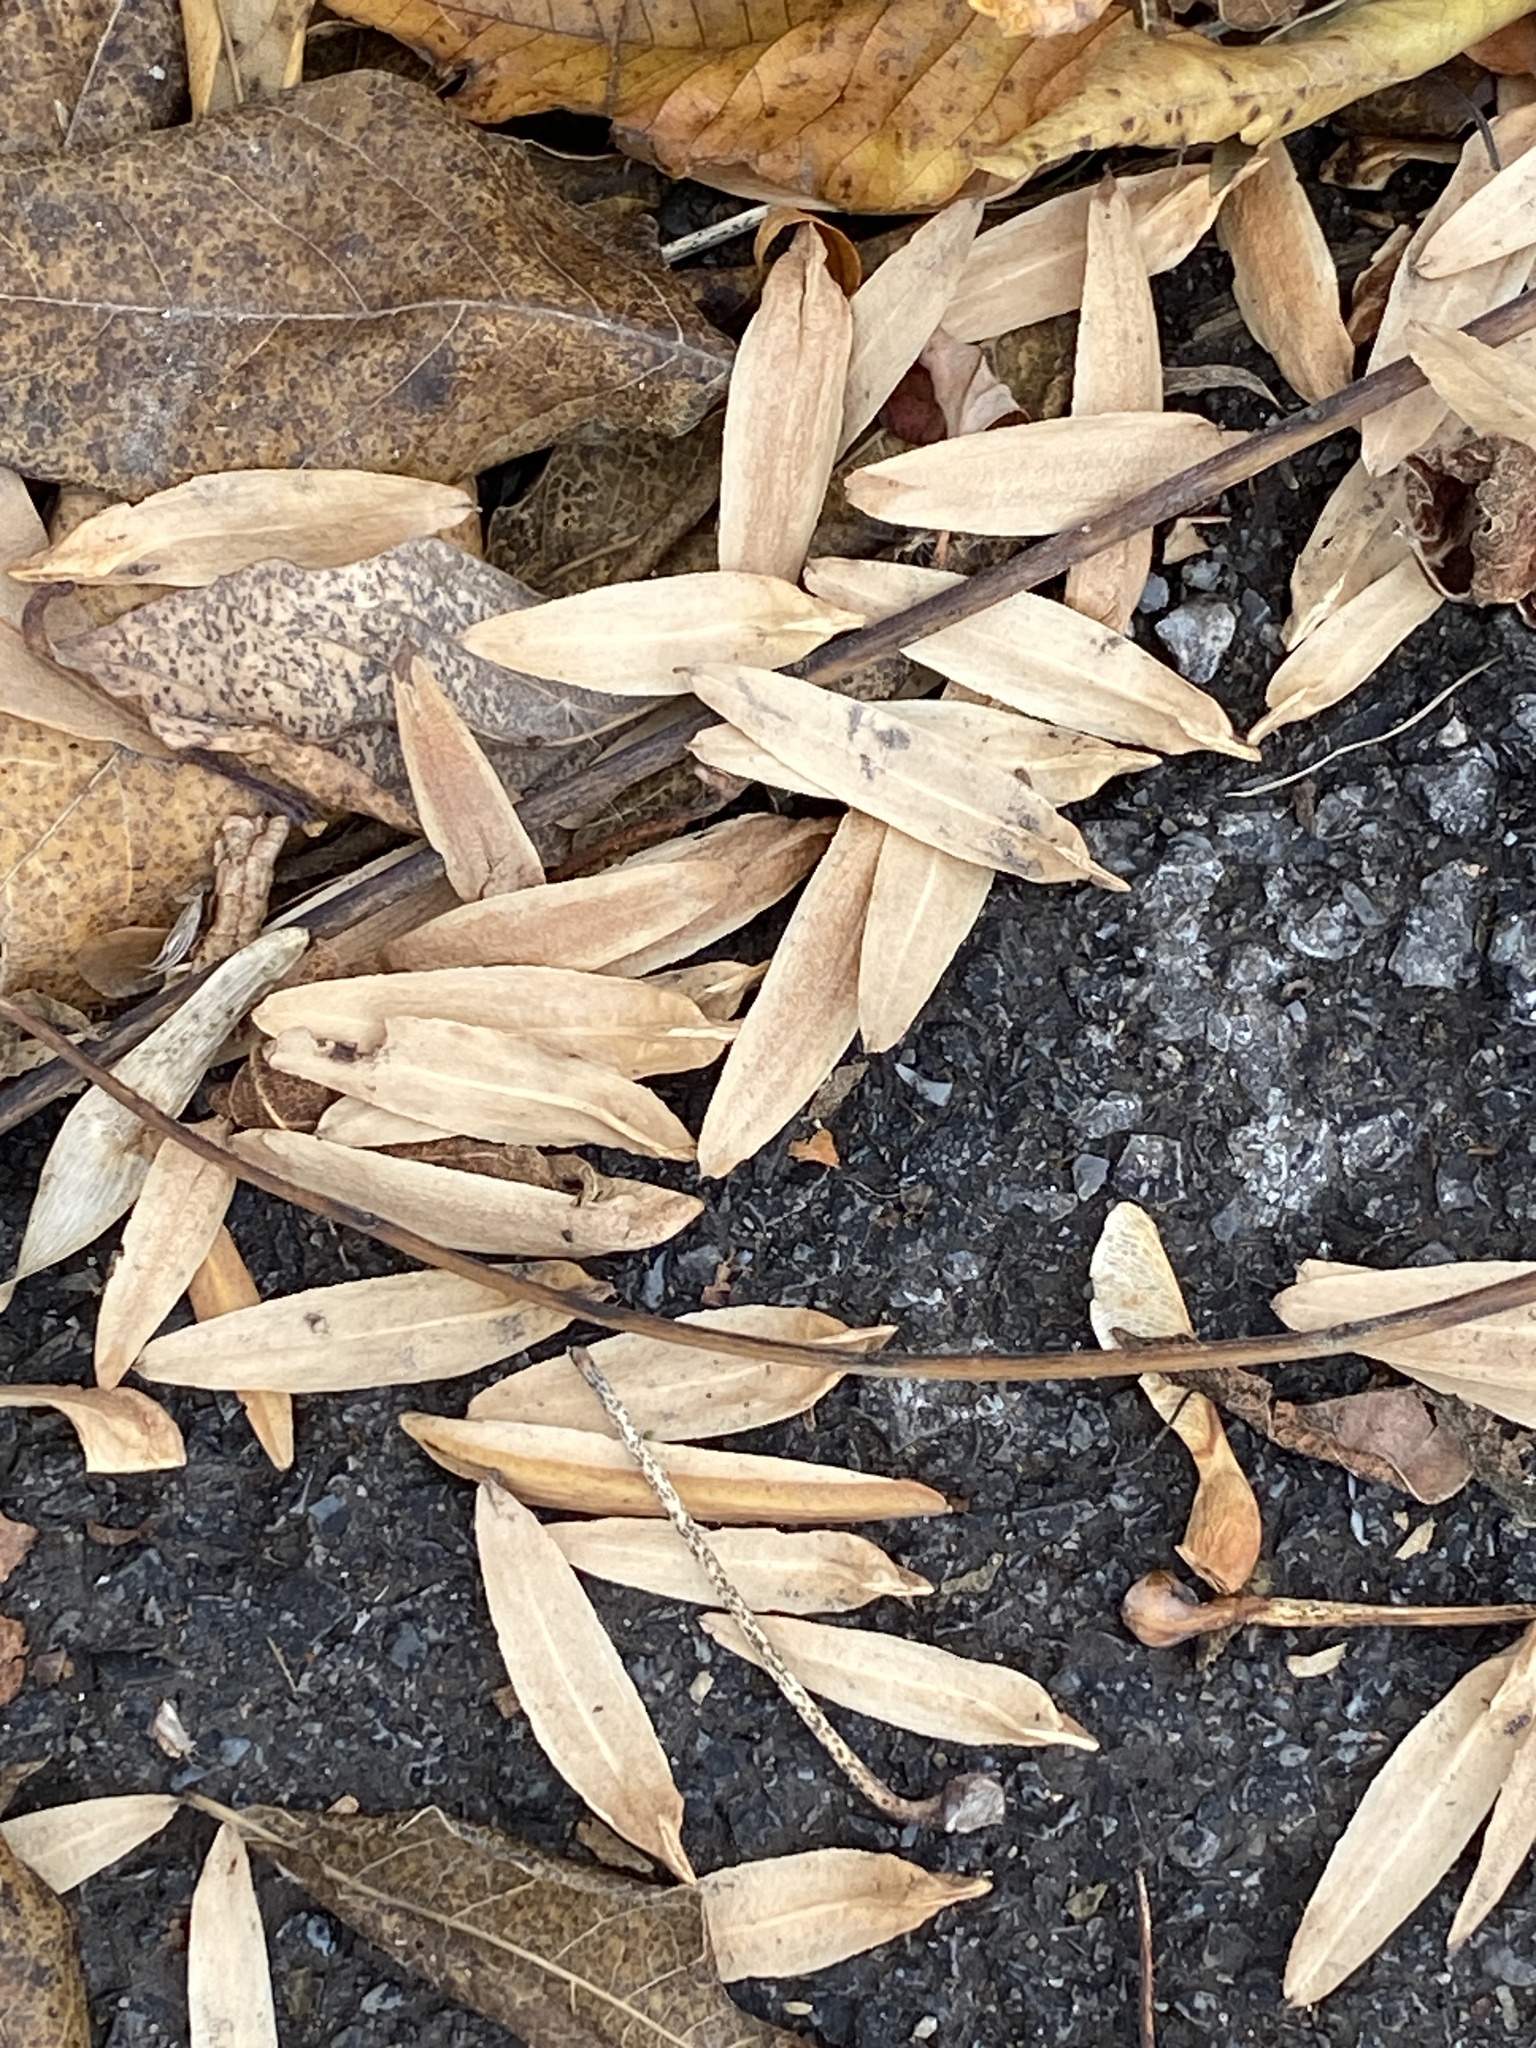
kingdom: Plantae
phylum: Tracheophyta
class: Magnoliopsida
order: Magnoliales
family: Magnoliaceae
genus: Liriodendron
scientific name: Liriodendron tulipifera
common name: Tulip tree
